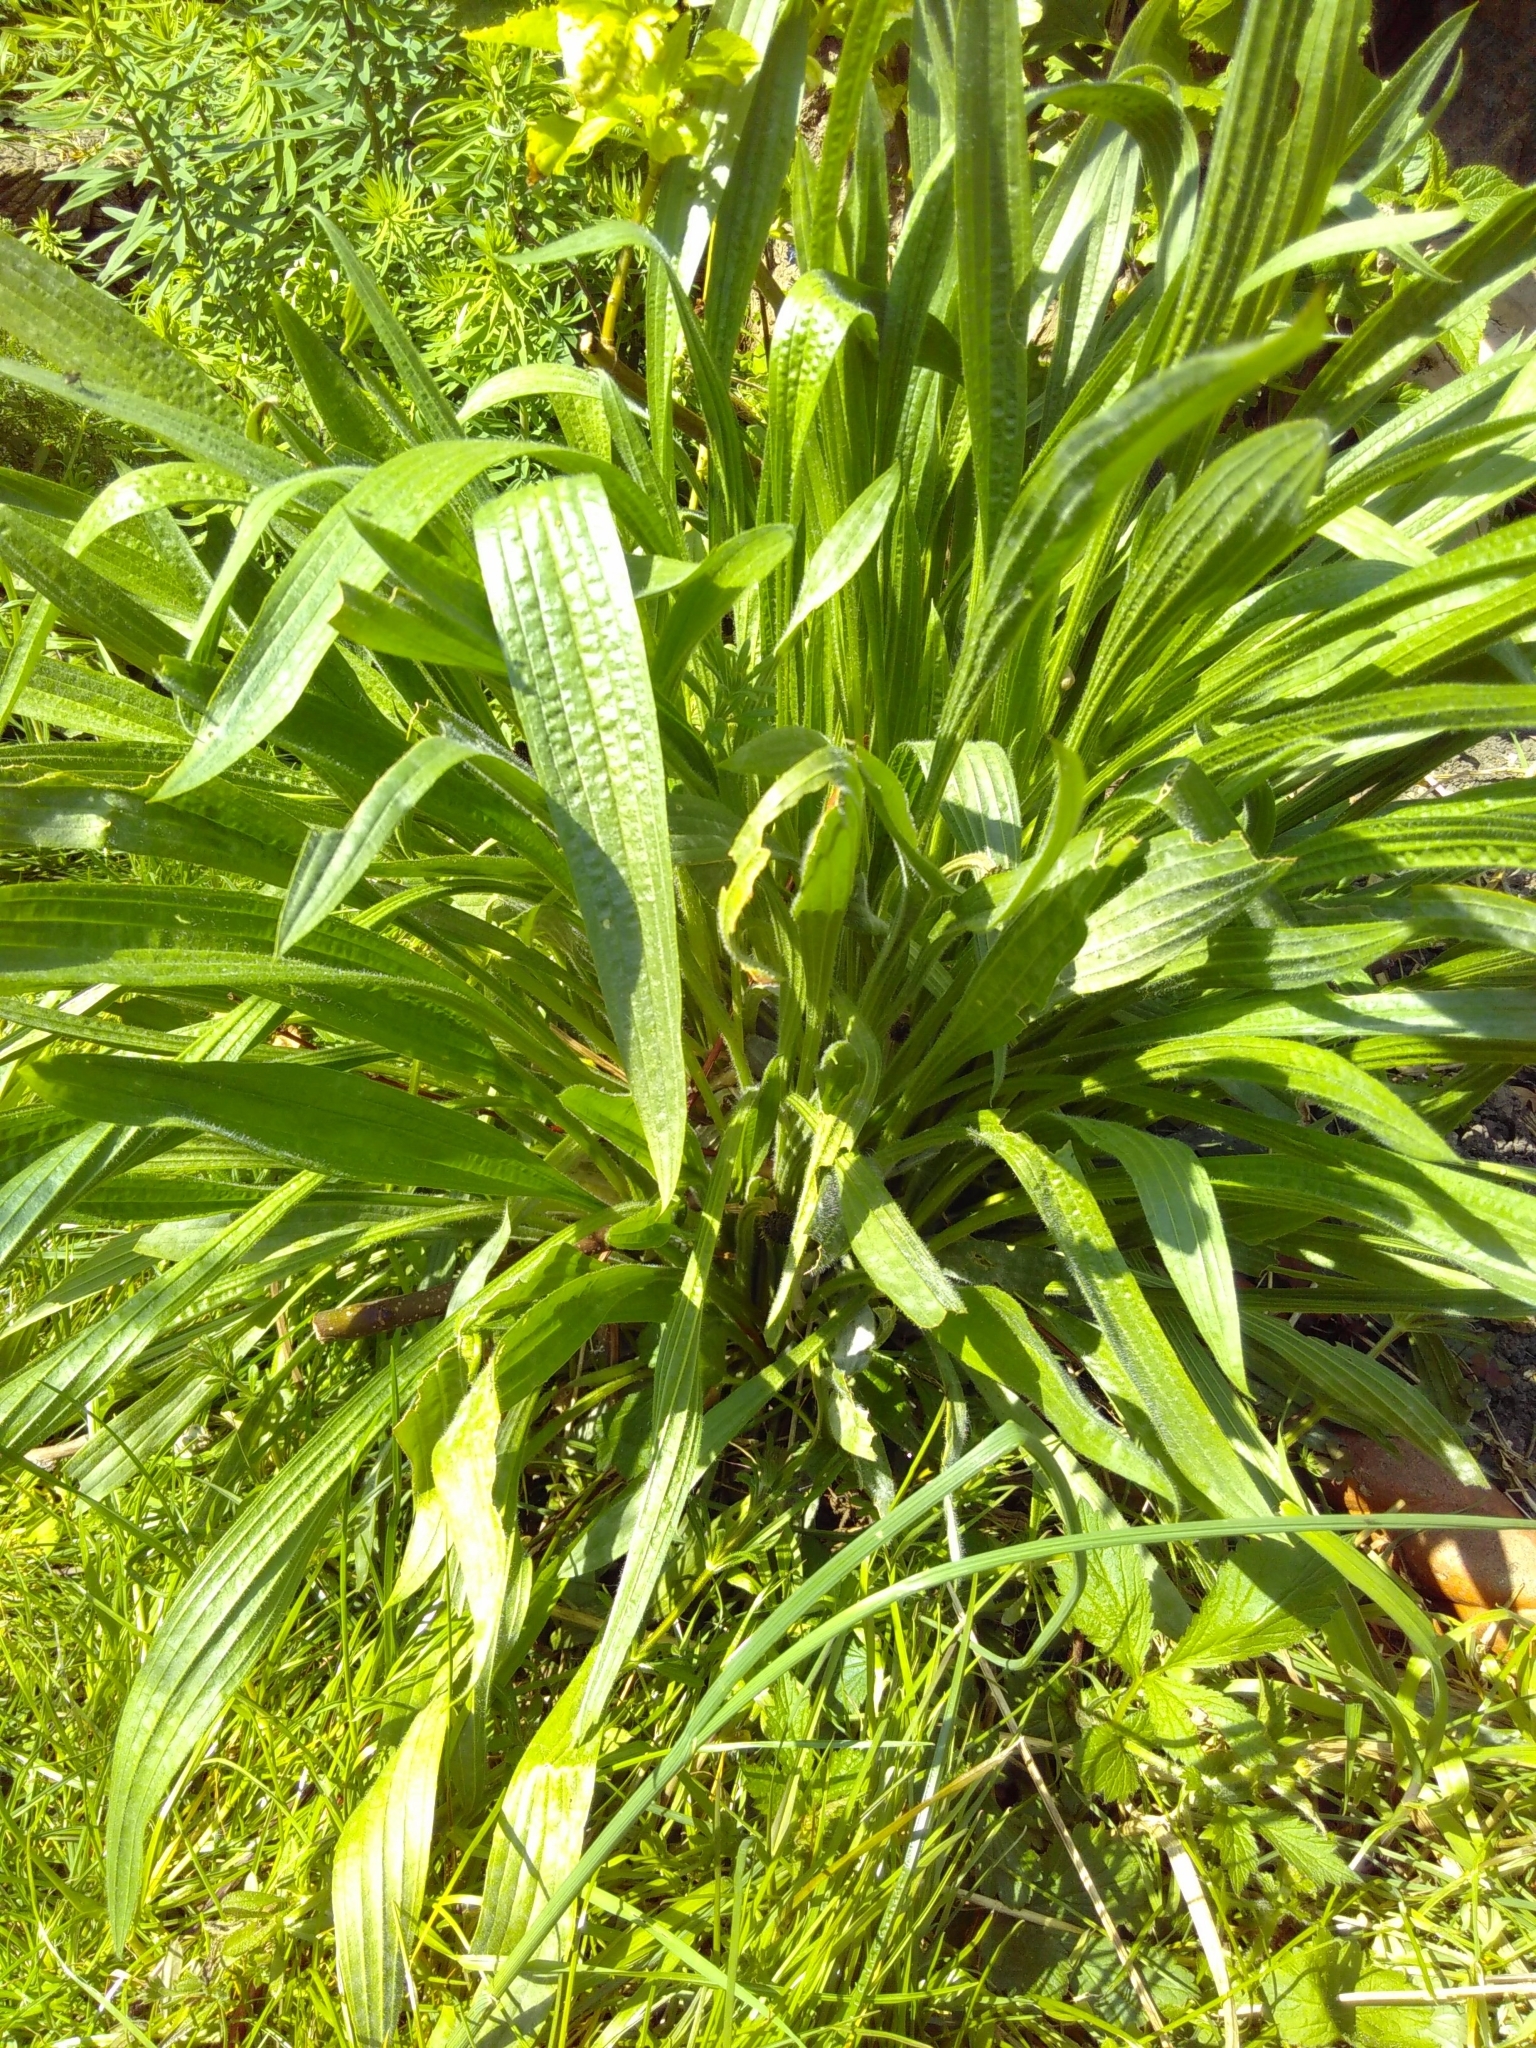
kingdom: Plantae
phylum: Tracheophyta
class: Magnoliopsida
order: Lamiales
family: Plantaginaceae
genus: Plantago
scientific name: Plantago lanceolata
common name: Ribwort plantain
